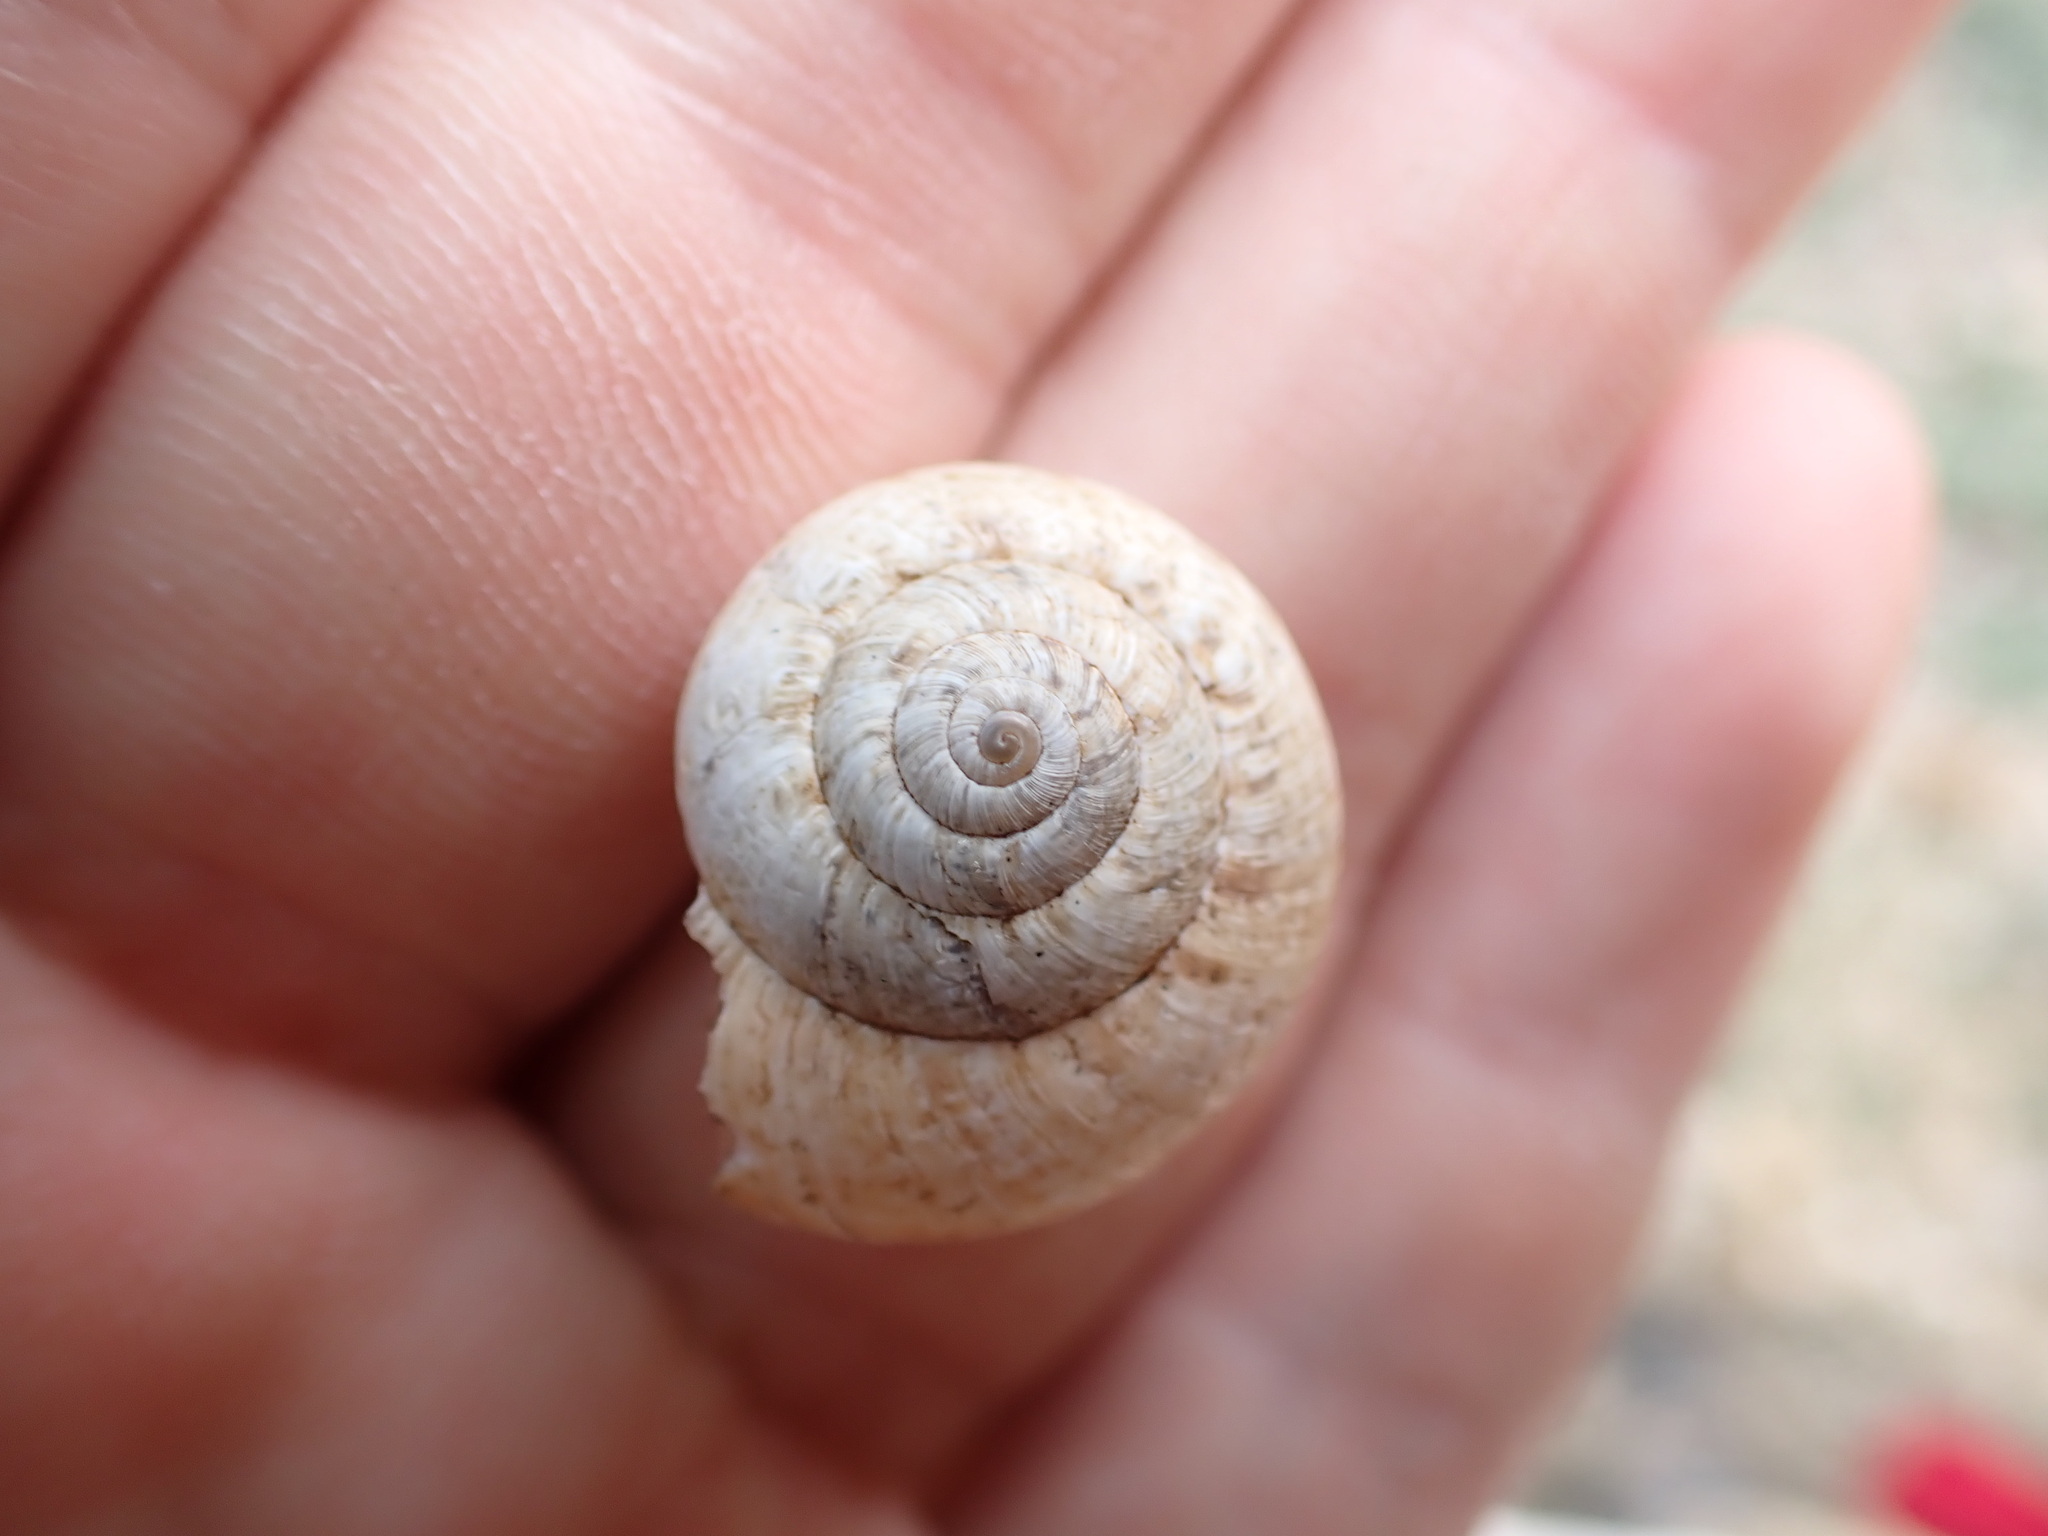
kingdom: Animalia
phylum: Mollusca
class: Gastropoda
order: Stylommatophora
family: Geomitridae
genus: Xerosecta
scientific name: Xerosecta cespitum
